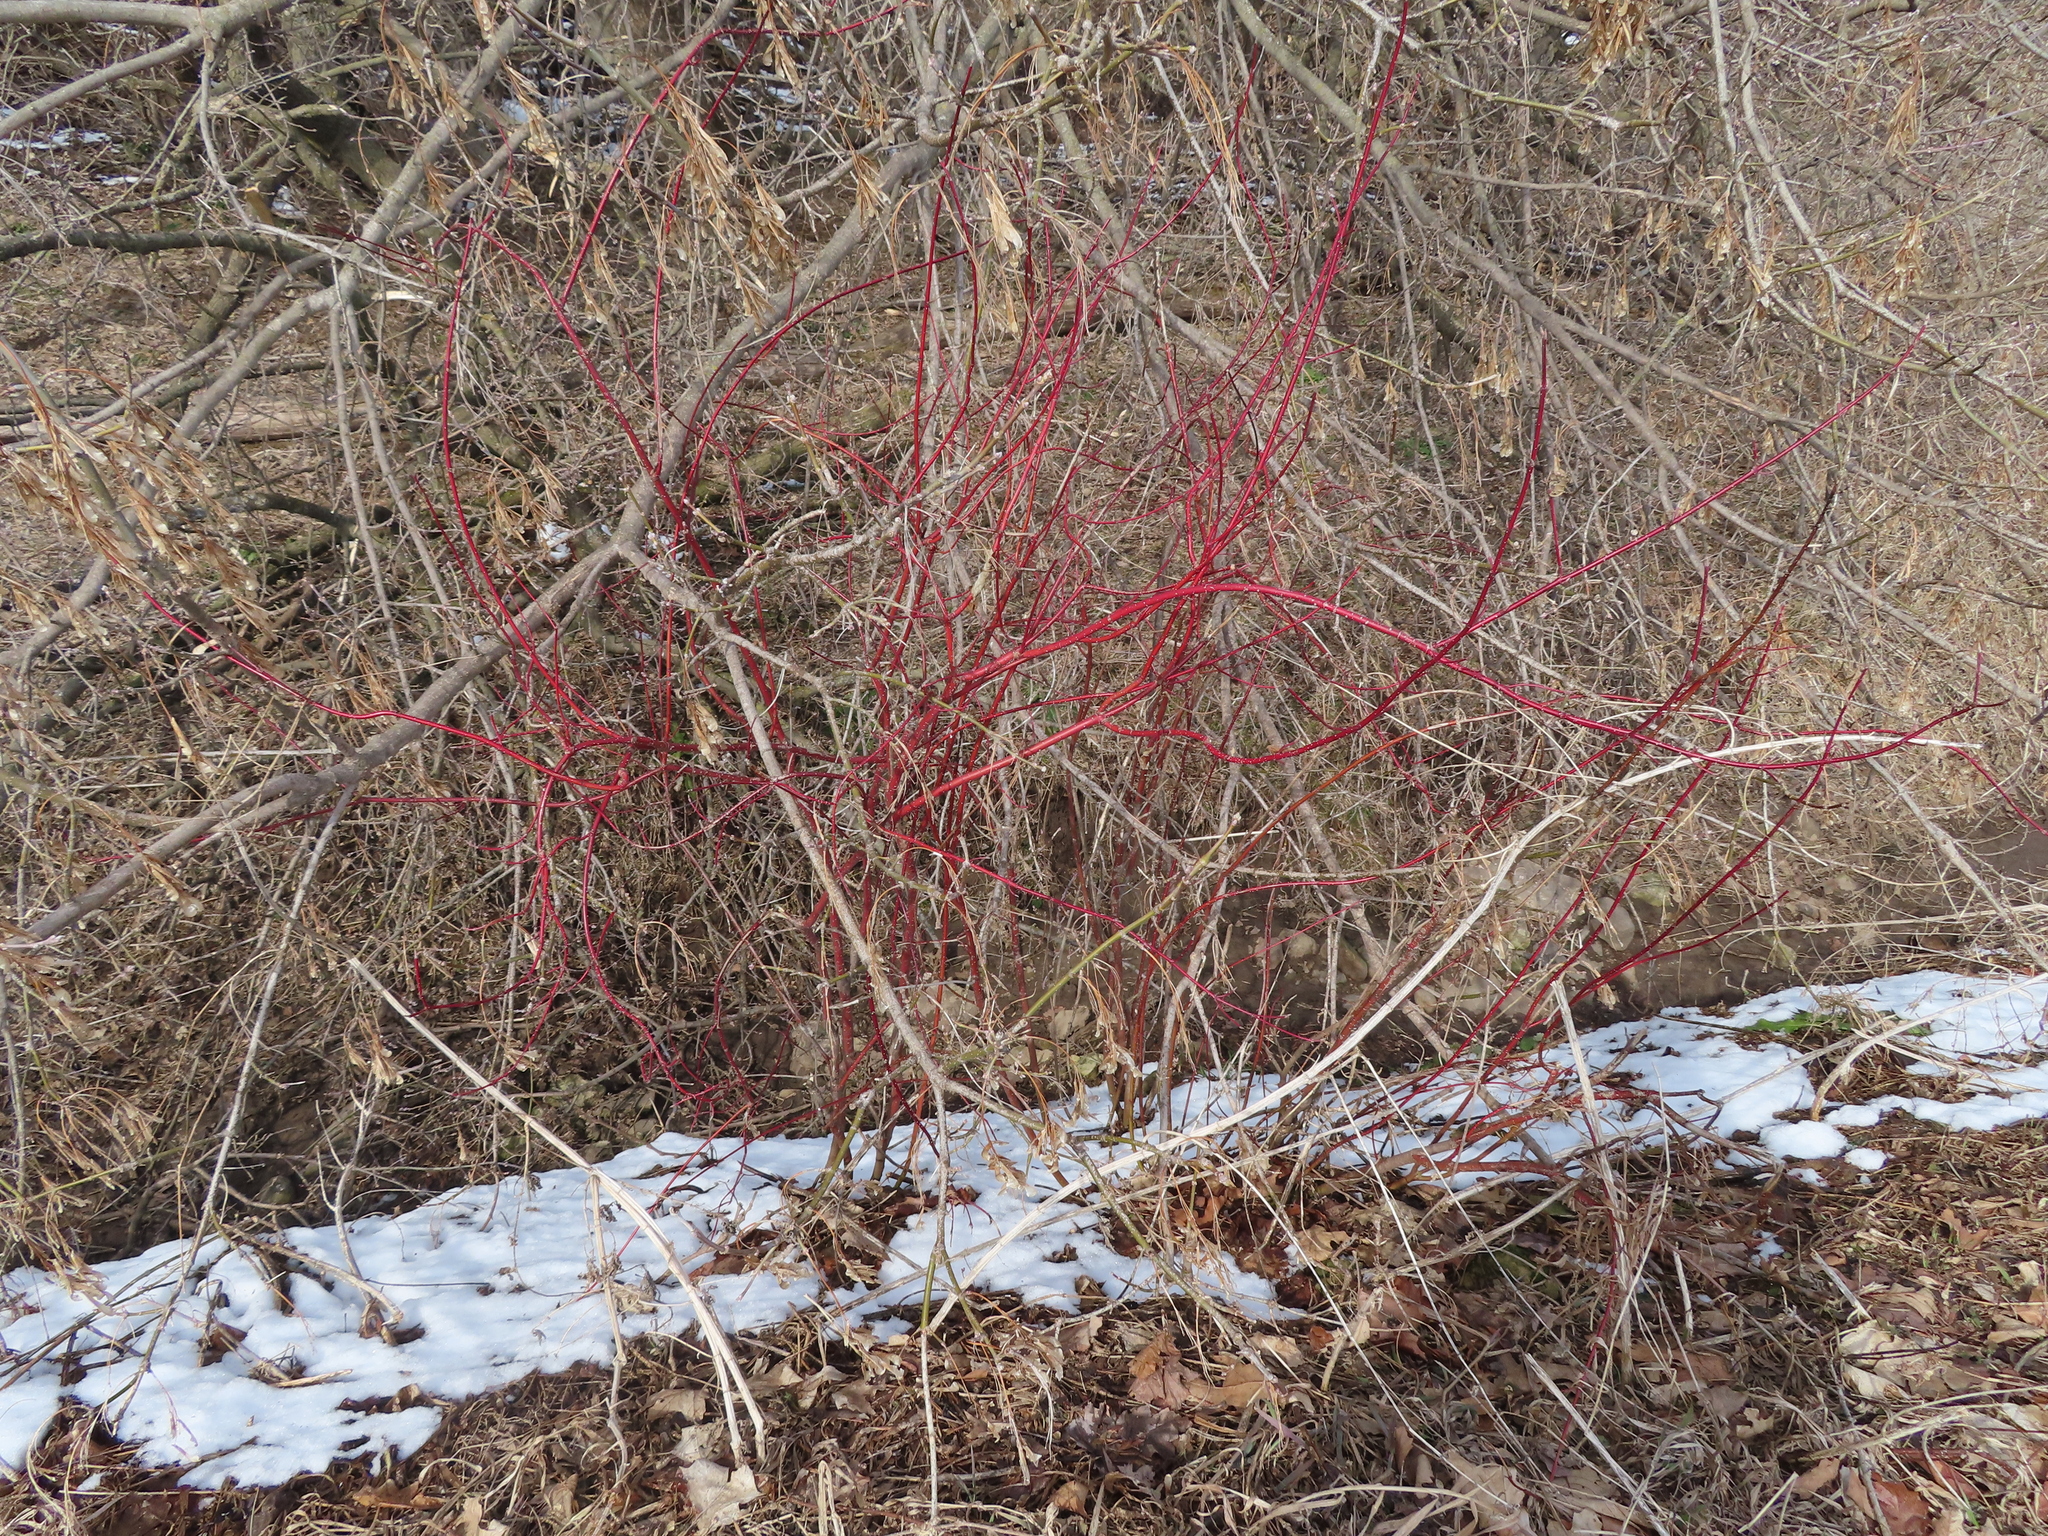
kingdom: Plantae
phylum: Tracheophyta
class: Magnoliopsida
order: Cornales
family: Cornaceae
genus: Cornus
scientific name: Cornus sericea
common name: Red-osier dogwood
